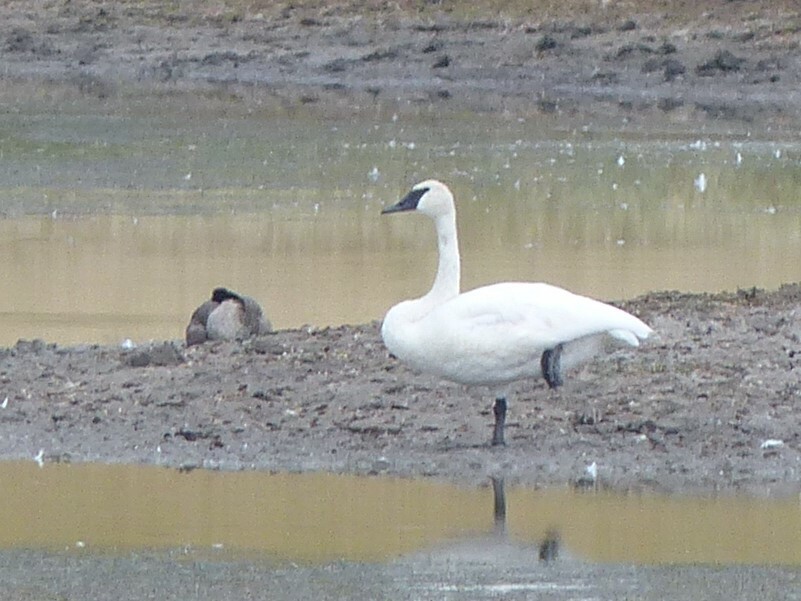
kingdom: Animalia
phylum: Chordata
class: Aves
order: Anseriformes
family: Anatidae
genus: Cygnus
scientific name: Cygnus buccinator
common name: Trumpeter swan
